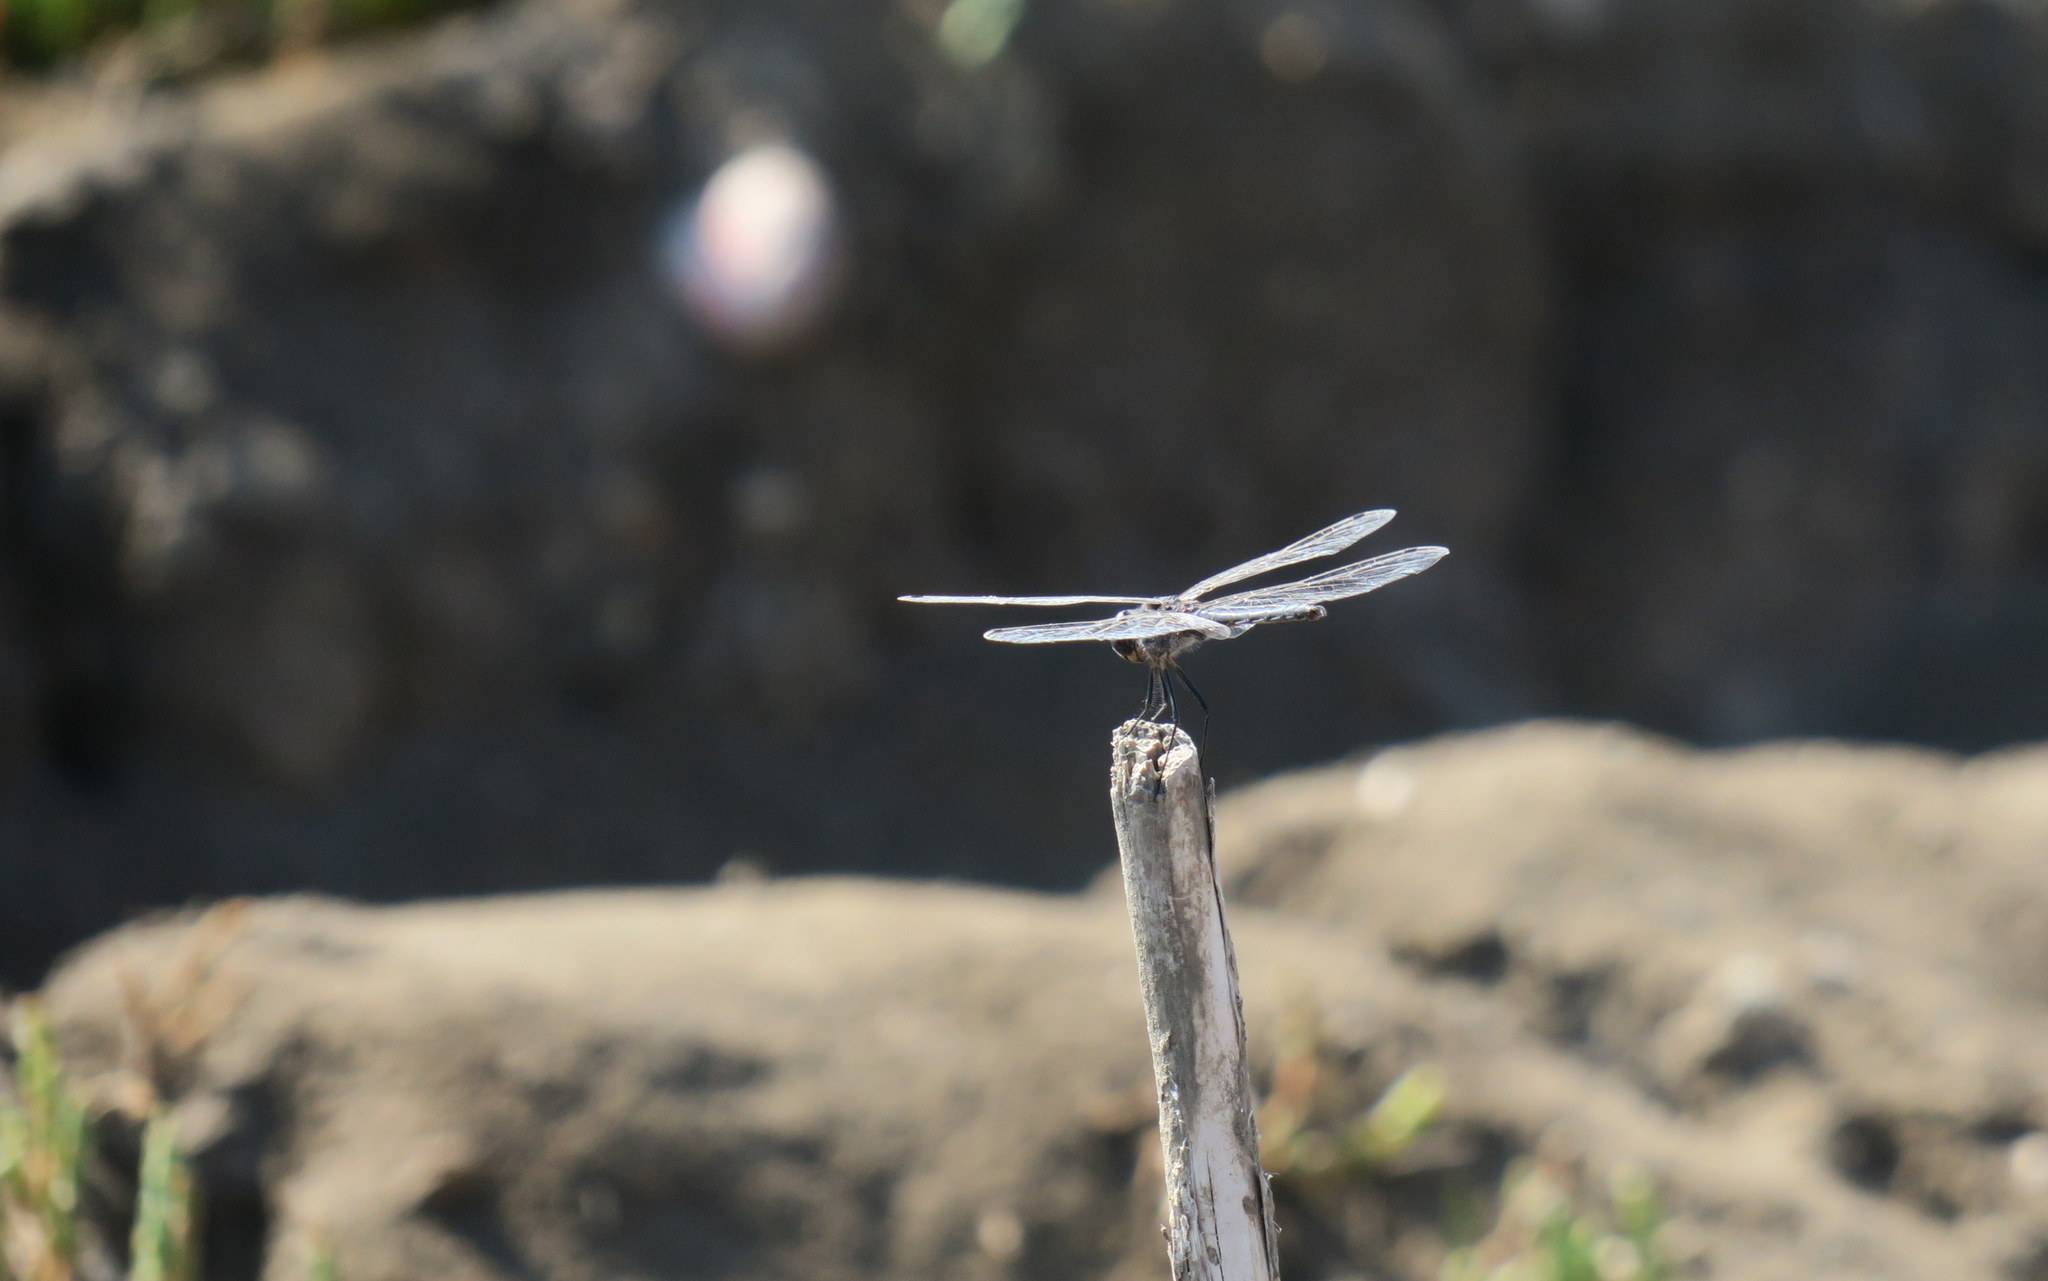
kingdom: Animalia
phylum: Arthropoda
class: Insecta
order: Odonata
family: Libellulidae
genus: Selysiothemis
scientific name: Selysiothemis nigra
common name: Black pennant
